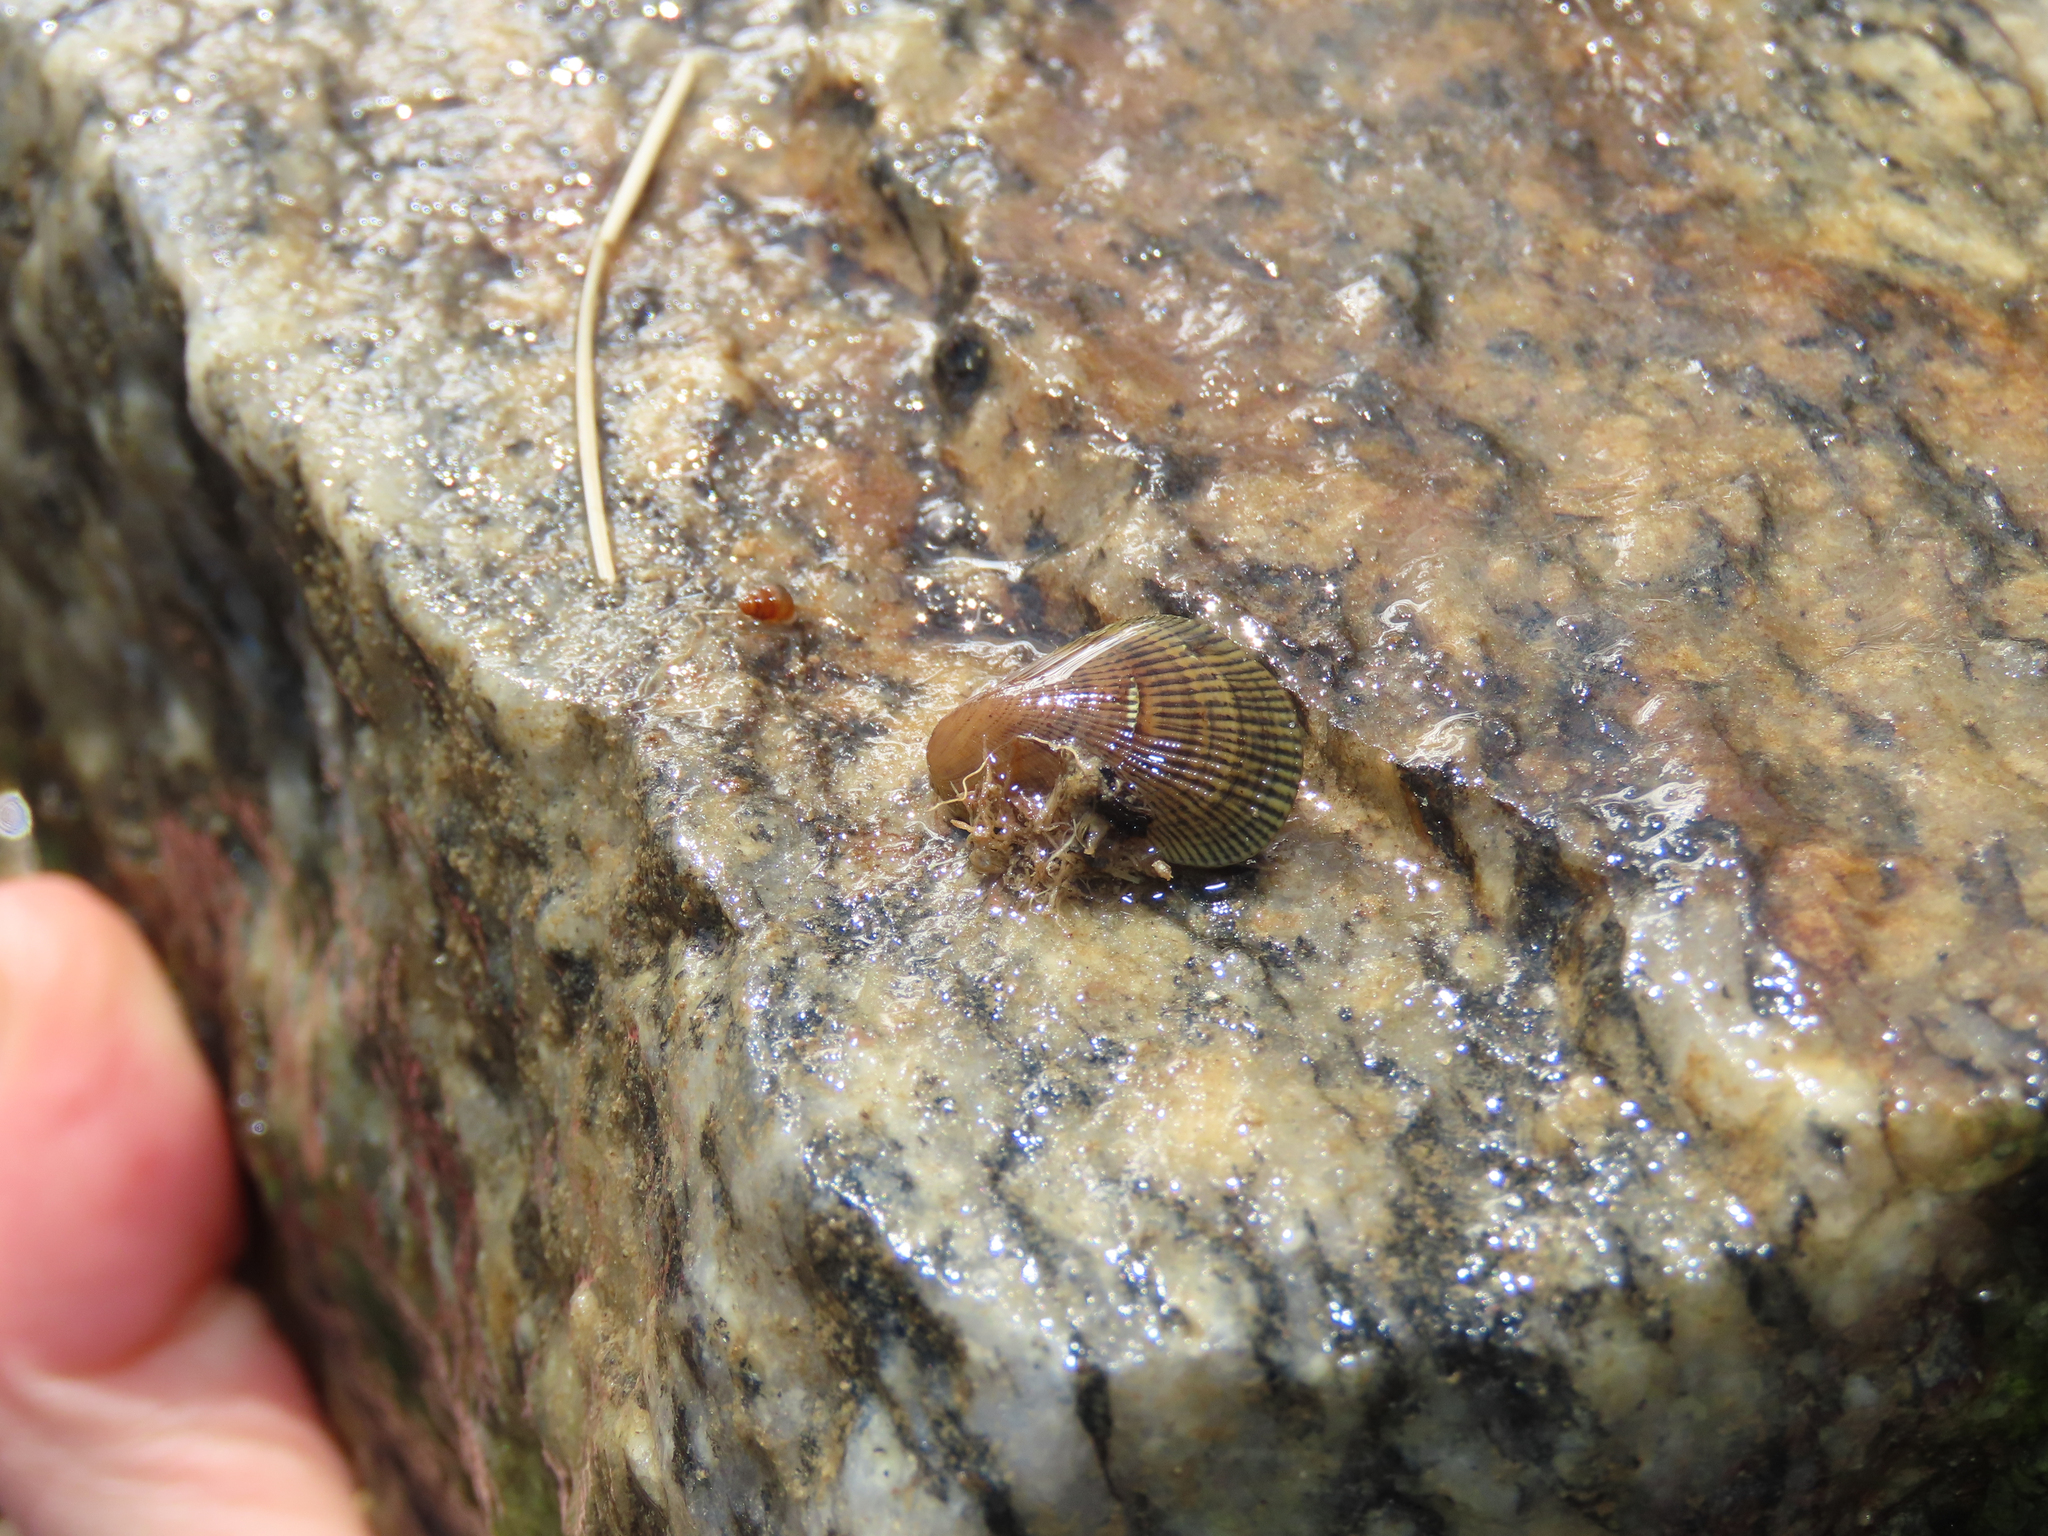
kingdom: Animalia
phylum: Mollusca
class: Bivalvia
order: Mytilida
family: Mytilidae
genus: Geukensia
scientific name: Geukensia demissa
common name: Ribbed mussel
